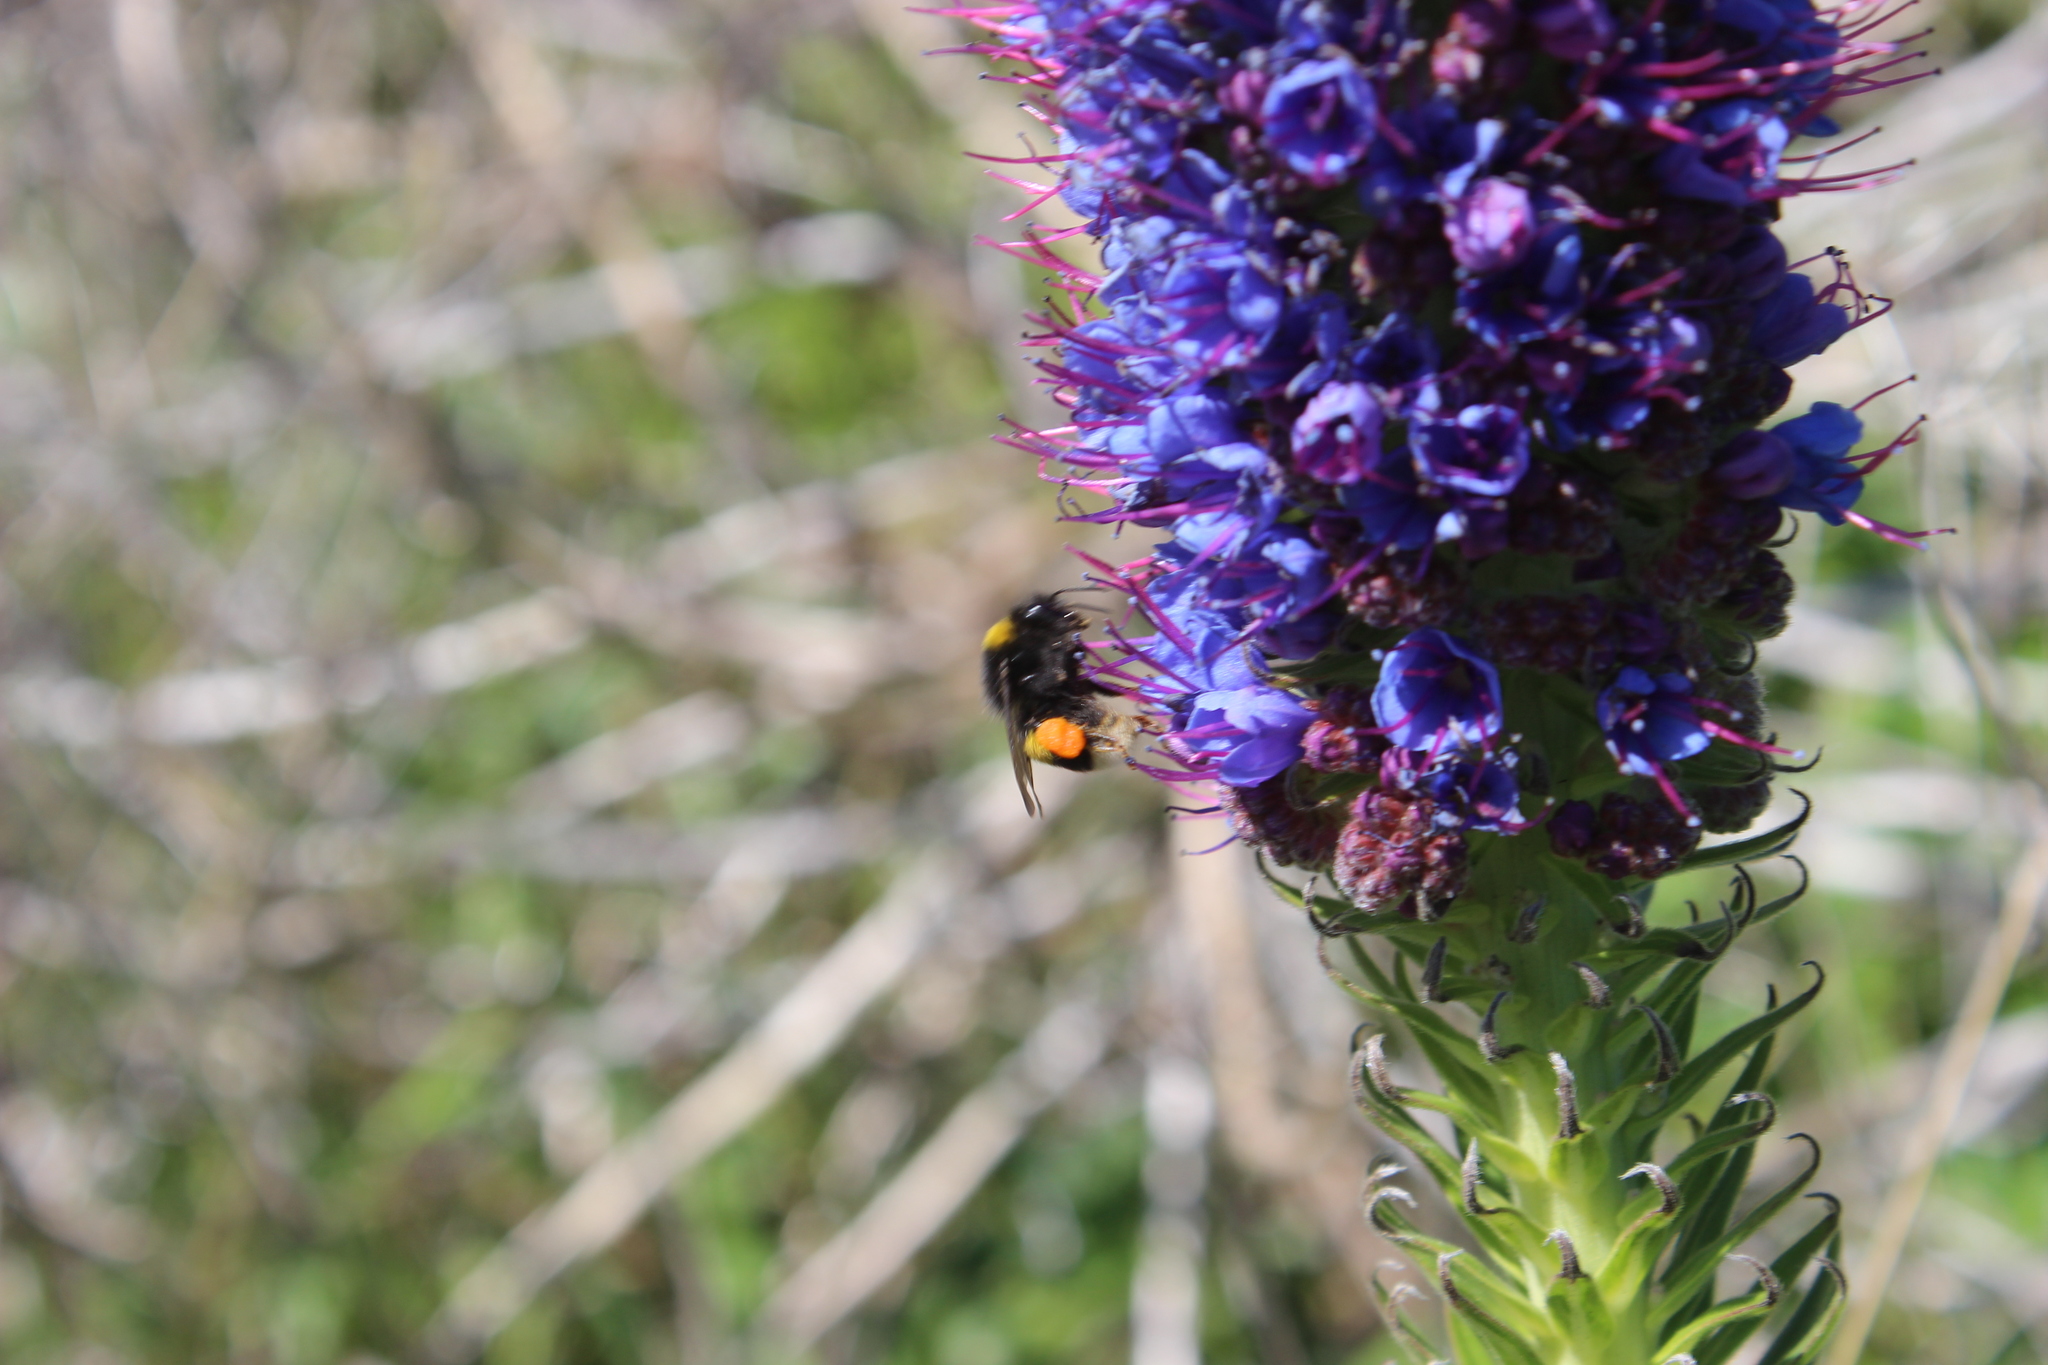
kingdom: Animalia
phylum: Arthropoda
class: Insecta
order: Hymenoptera
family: Apidae
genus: Bombus
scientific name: Bombus terrestris
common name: Buff-tailed bumblebee
